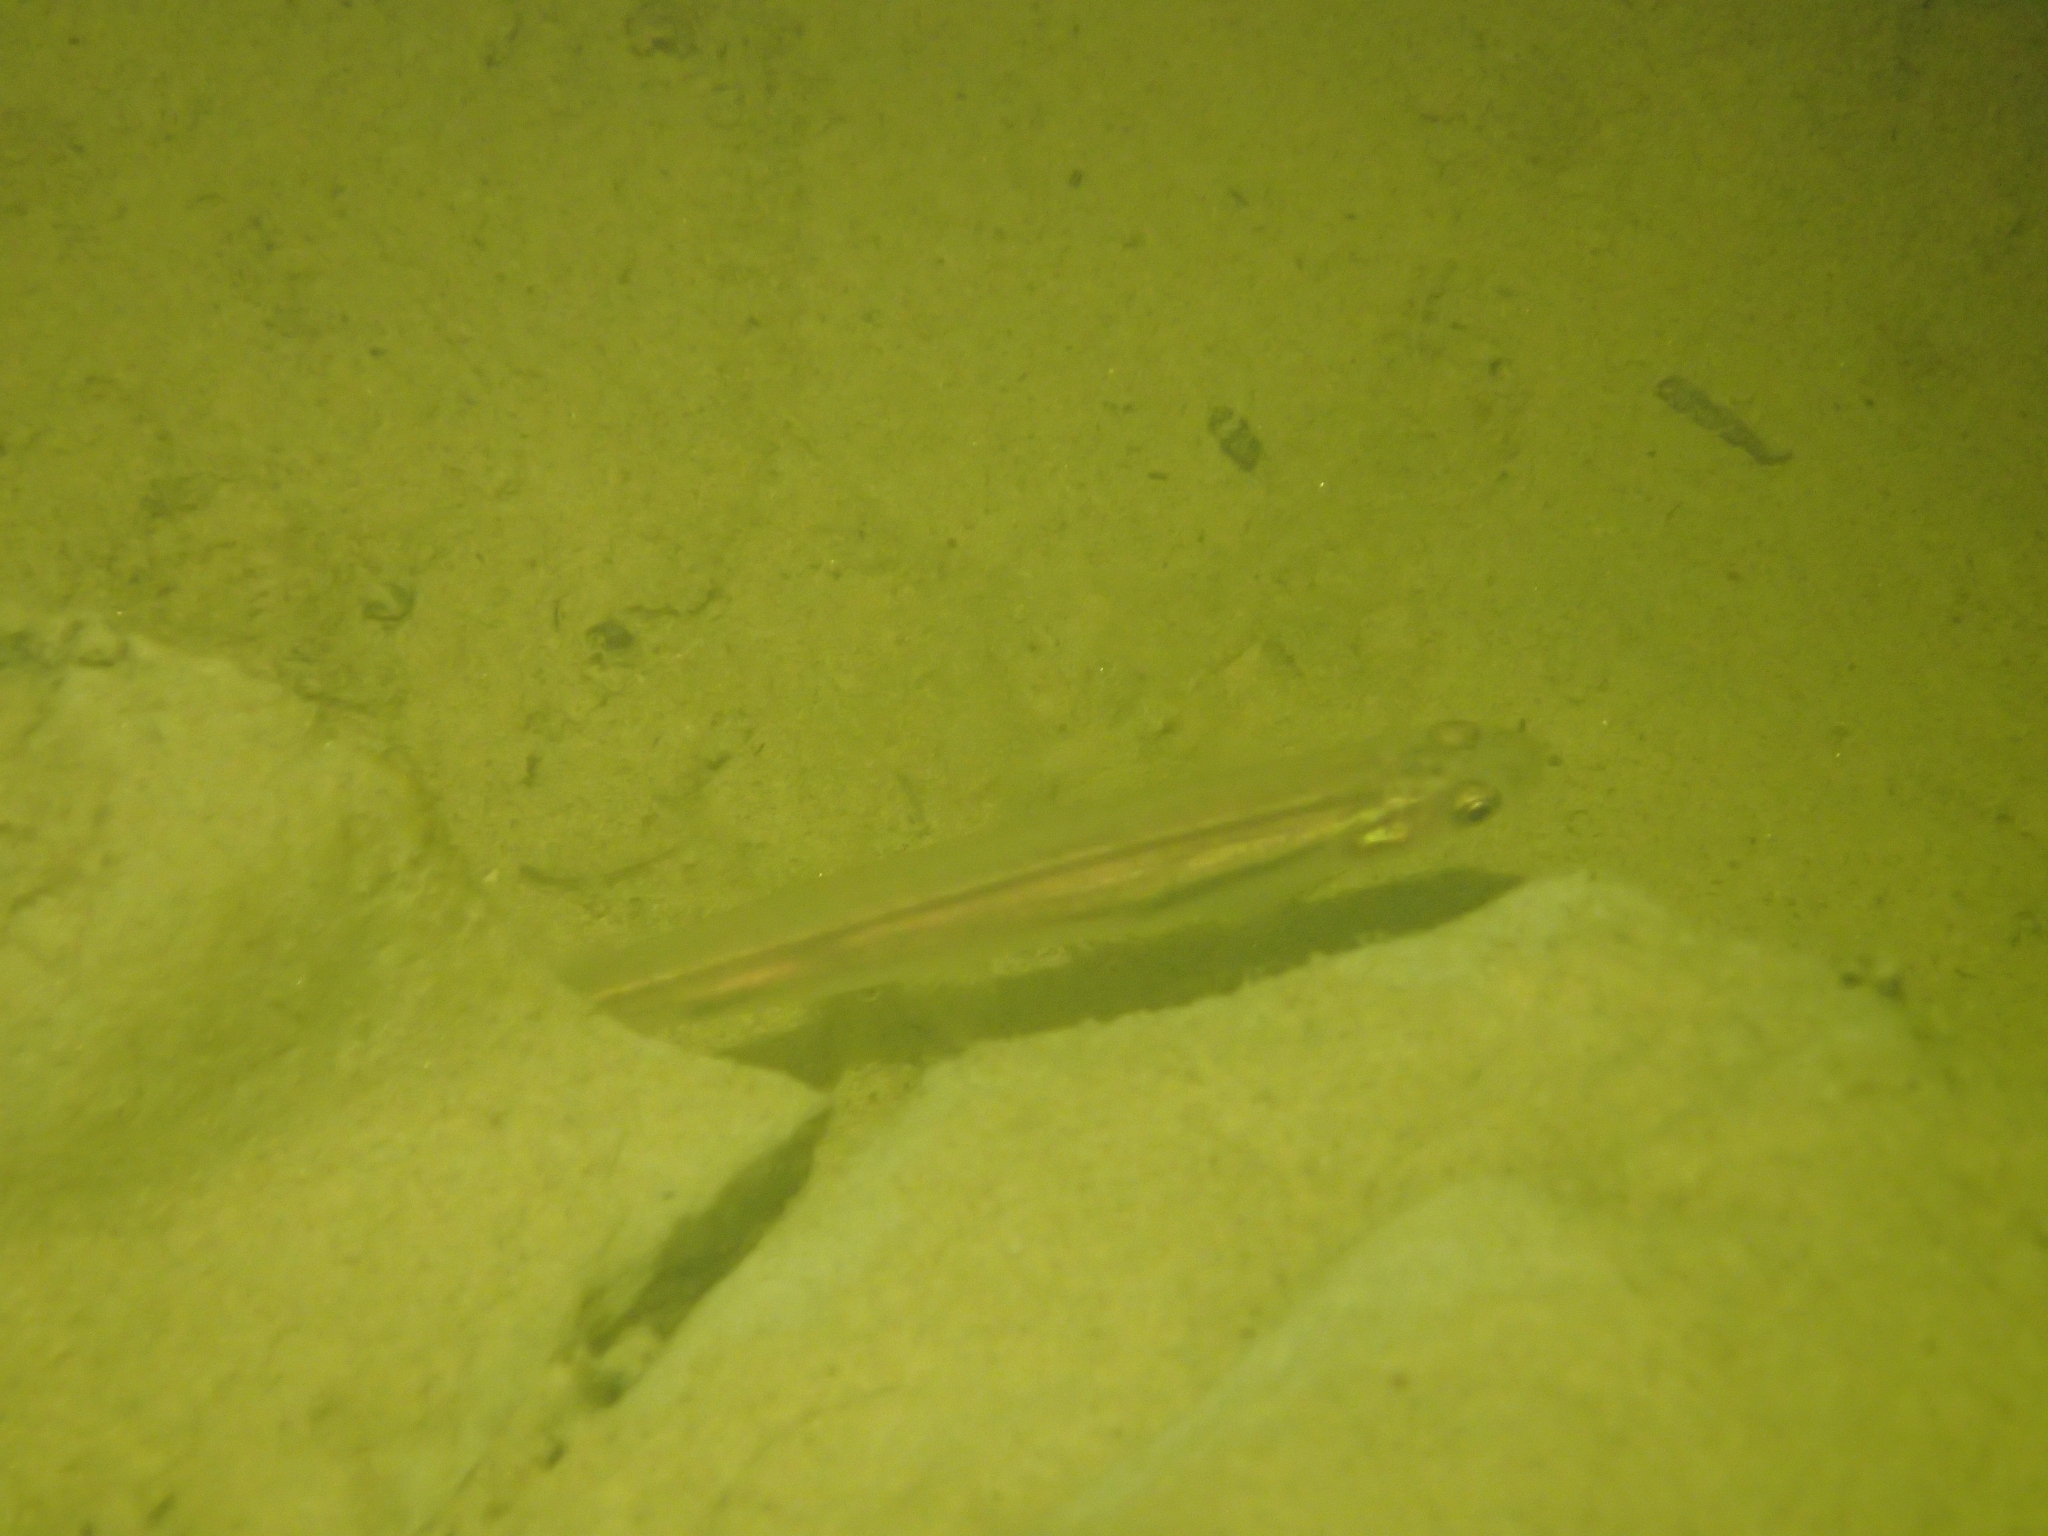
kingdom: Animalia
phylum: Chordata
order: Osmeriformes
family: Galaxiidae
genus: Galaxias
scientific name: Galaxias maculatus
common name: Common galaxias
